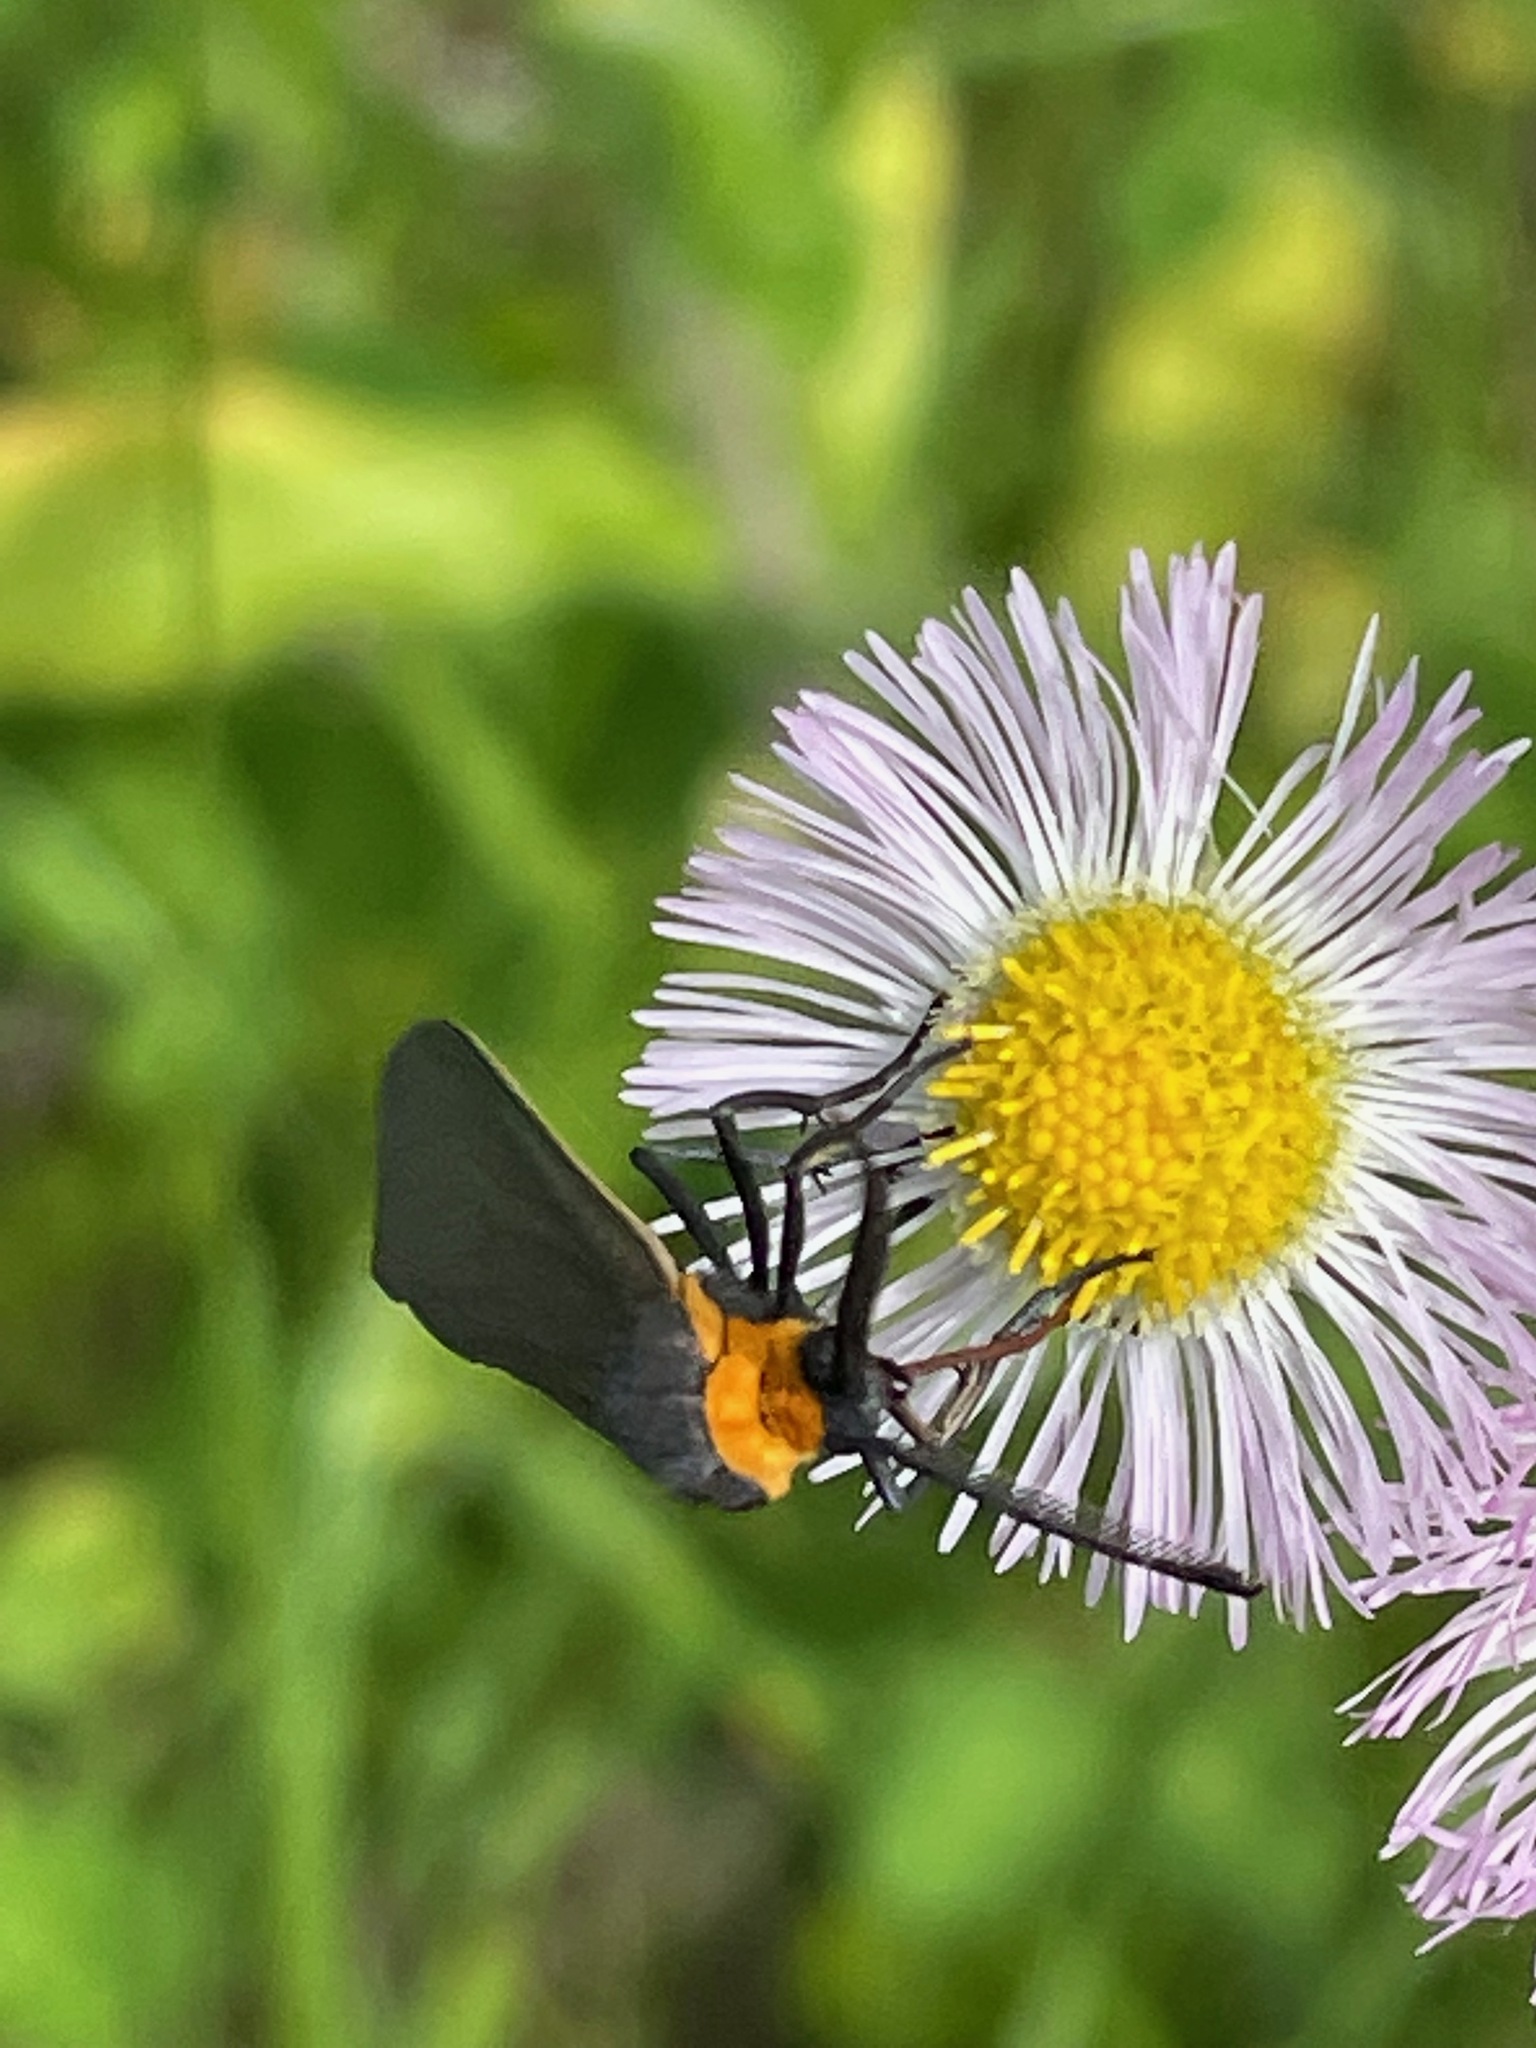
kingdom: Animalia
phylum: Arthropoda
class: Insecta
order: Lepidoptera
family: Erebidae
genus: Cisseps
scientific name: Cisseps fulvicollis
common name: Yellow-collared scape moth
